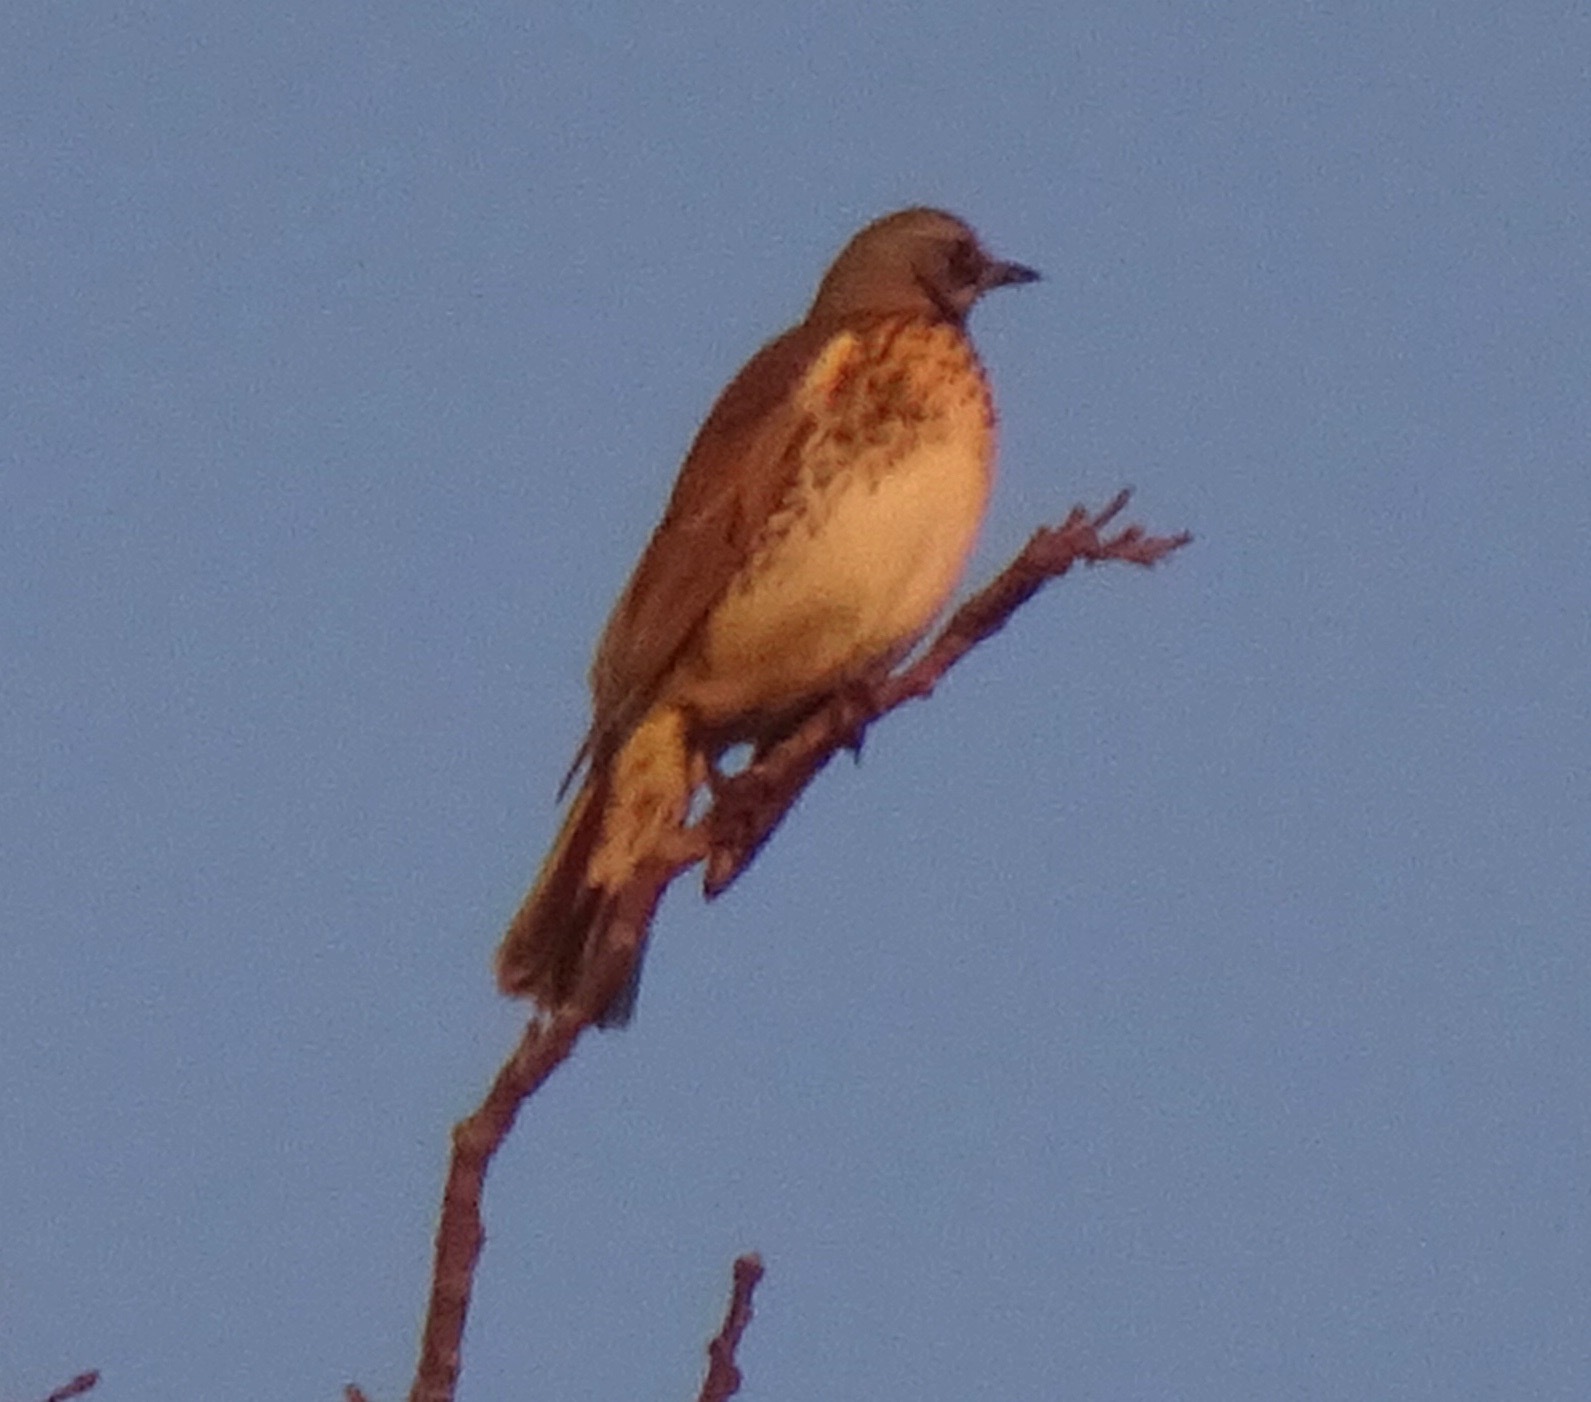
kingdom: Animalia
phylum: Chordata
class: Aves
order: Passeriformes
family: Turdidae
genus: Turdus
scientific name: Turdus pilaris
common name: Fieldfare
